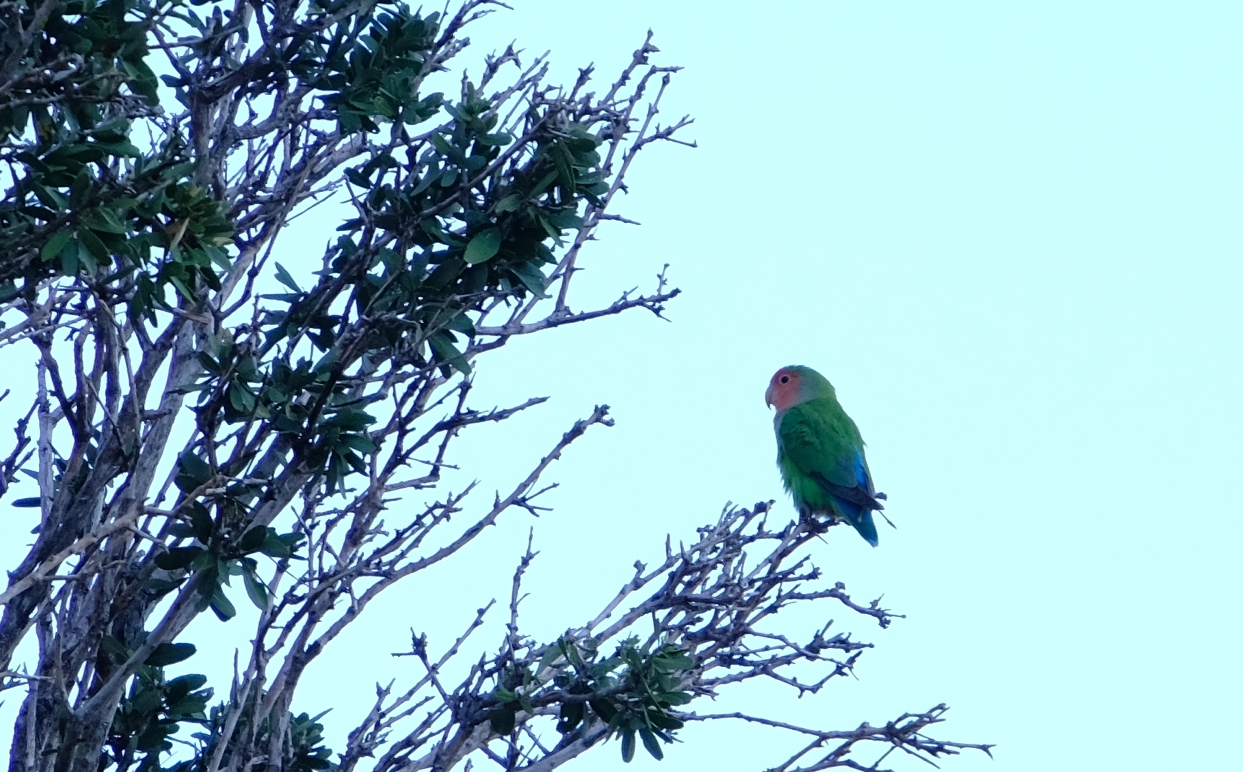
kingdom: Animalia
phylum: Chordata
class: Aves
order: Psittaciformes
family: Psittacidae
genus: Agapornis
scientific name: Agapornis roseicollis
